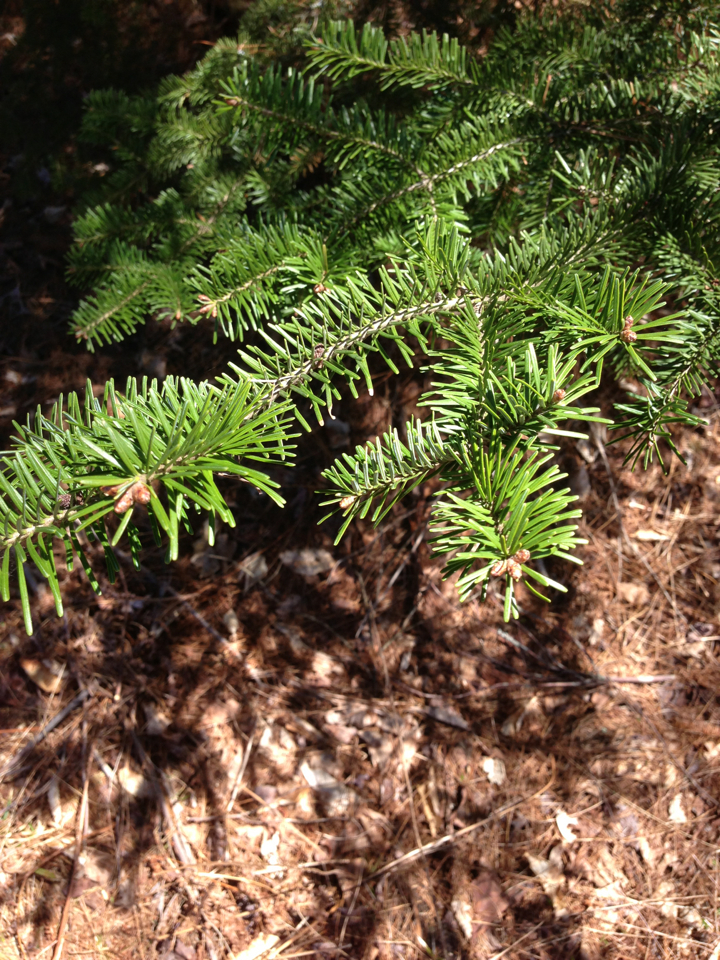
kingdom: Plantae
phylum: Tracheophyta
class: Pinopsida
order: Pinales
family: Pinaceae
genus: Abies
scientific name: Abies balsamea
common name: Balsam fir
